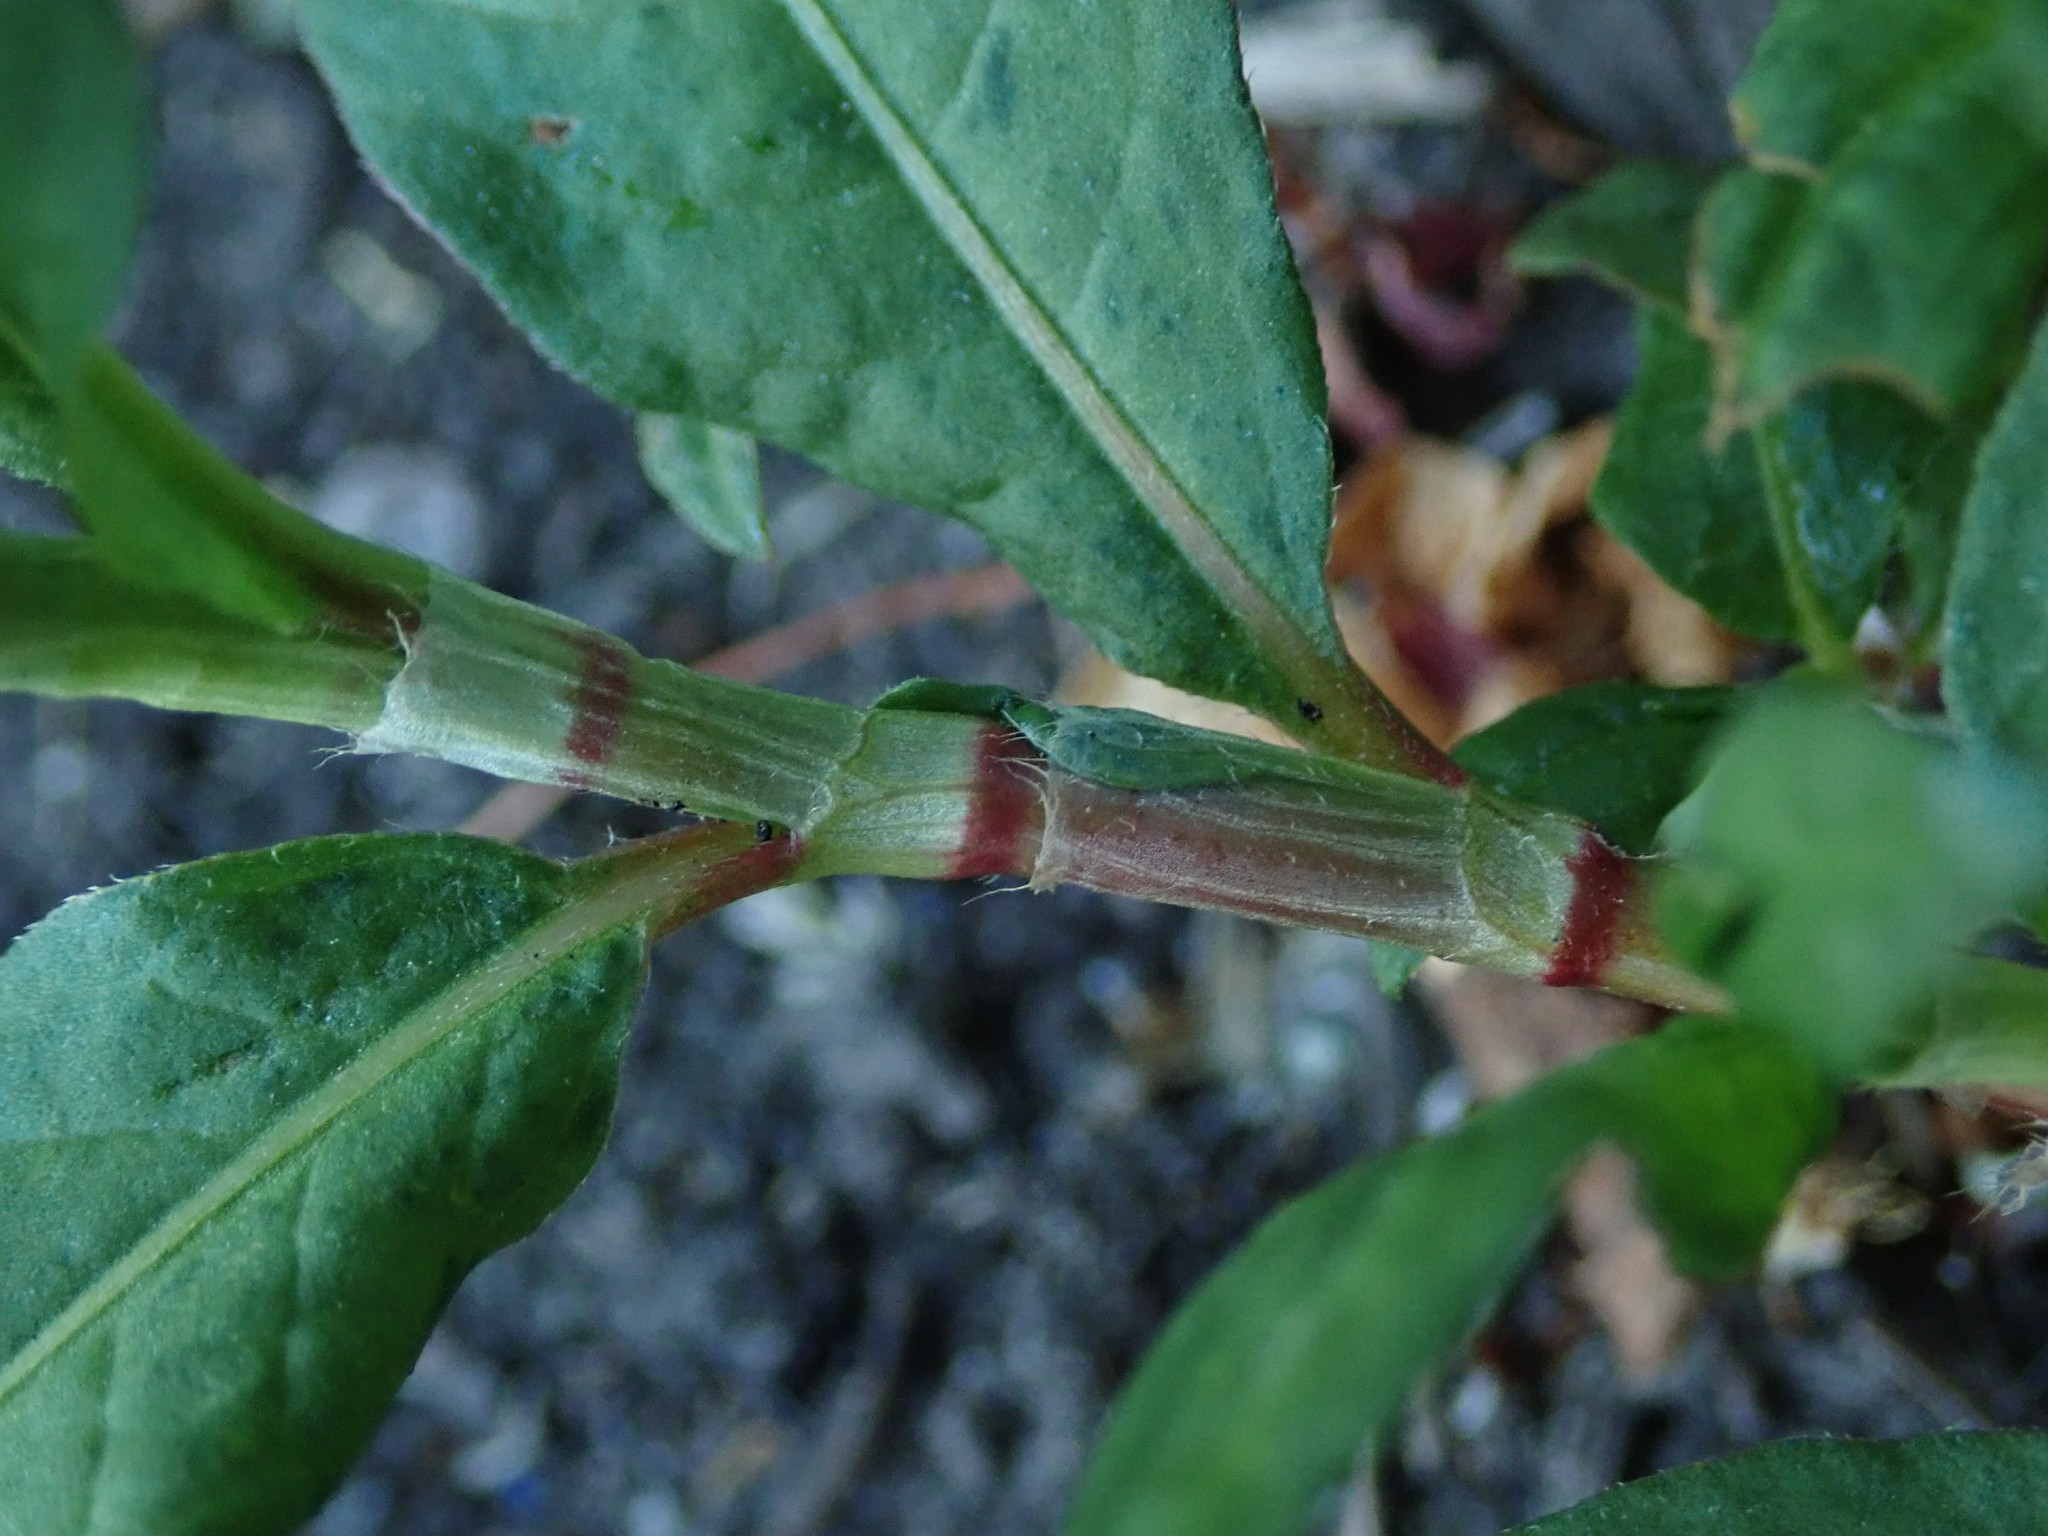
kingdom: Plantae
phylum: Tracheophyta
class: Magnoliopsida
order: Caryophyllales
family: Polygonaceae
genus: Persicaria
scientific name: Persicaria maculosa
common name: Redshank
